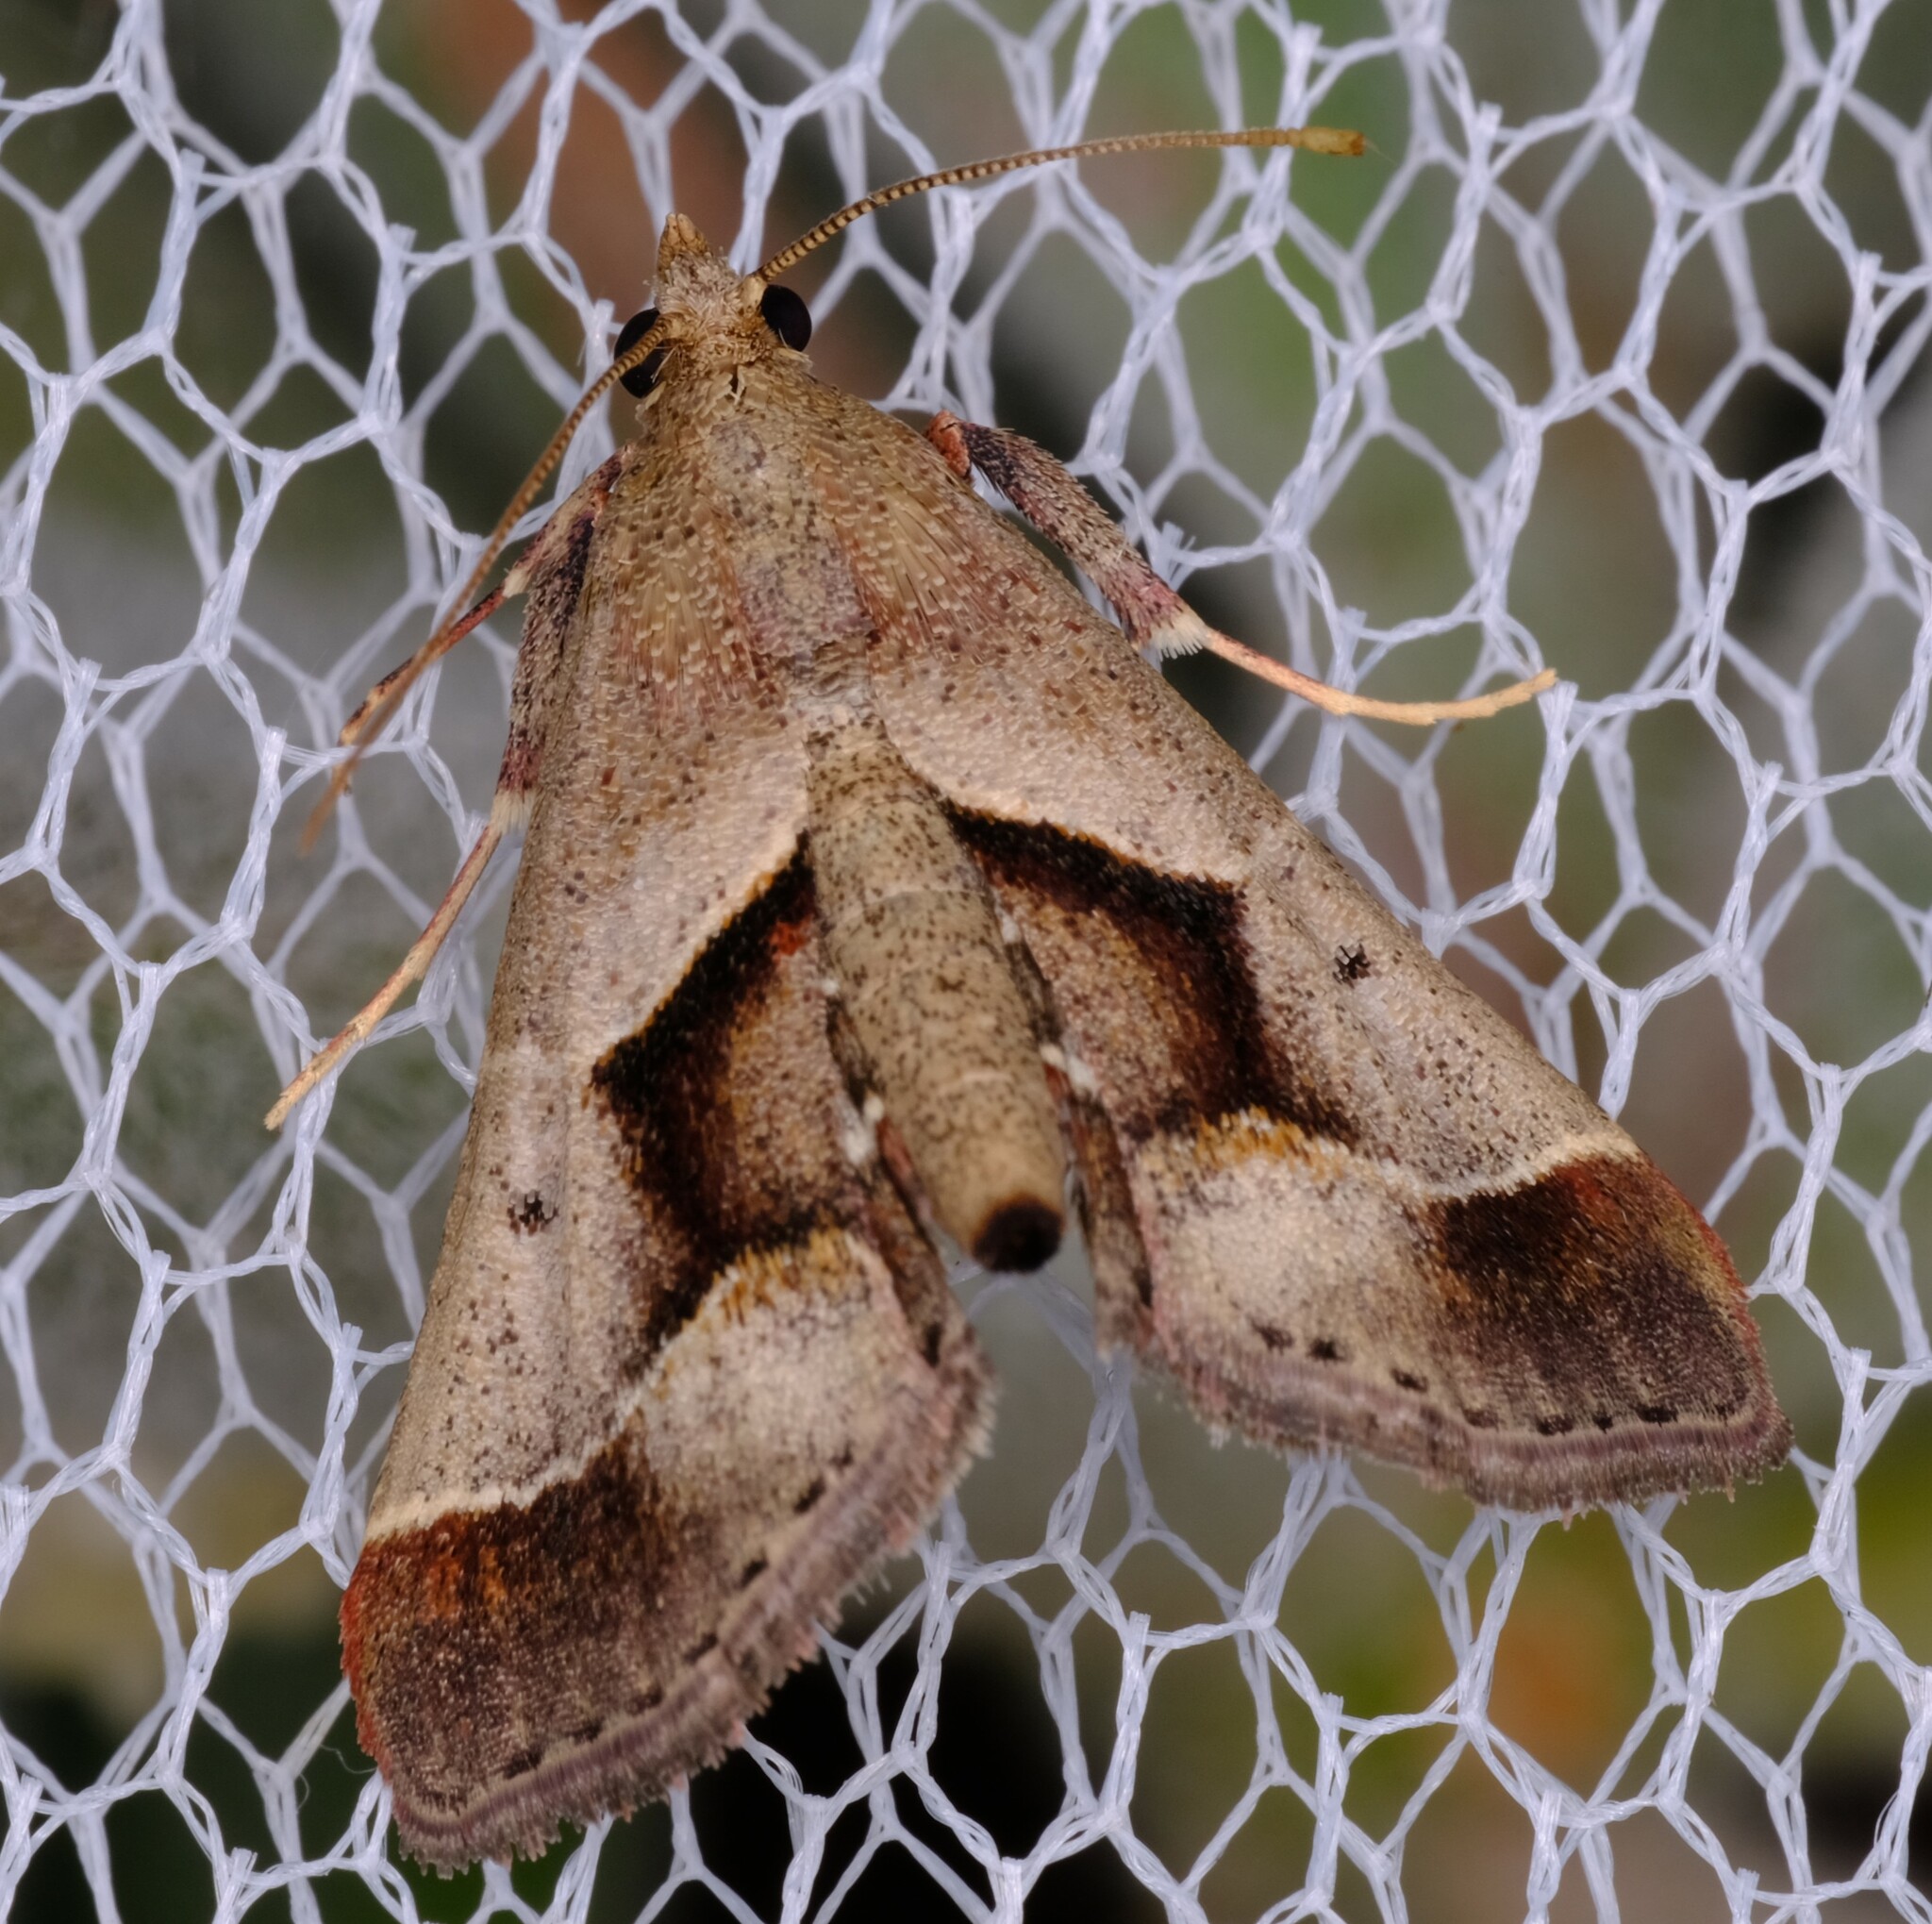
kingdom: Animalia
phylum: Arthropoda
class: Insecta
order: Lepidoptera
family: Pyralidae
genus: Gauna
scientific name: Gauna aegusalis
